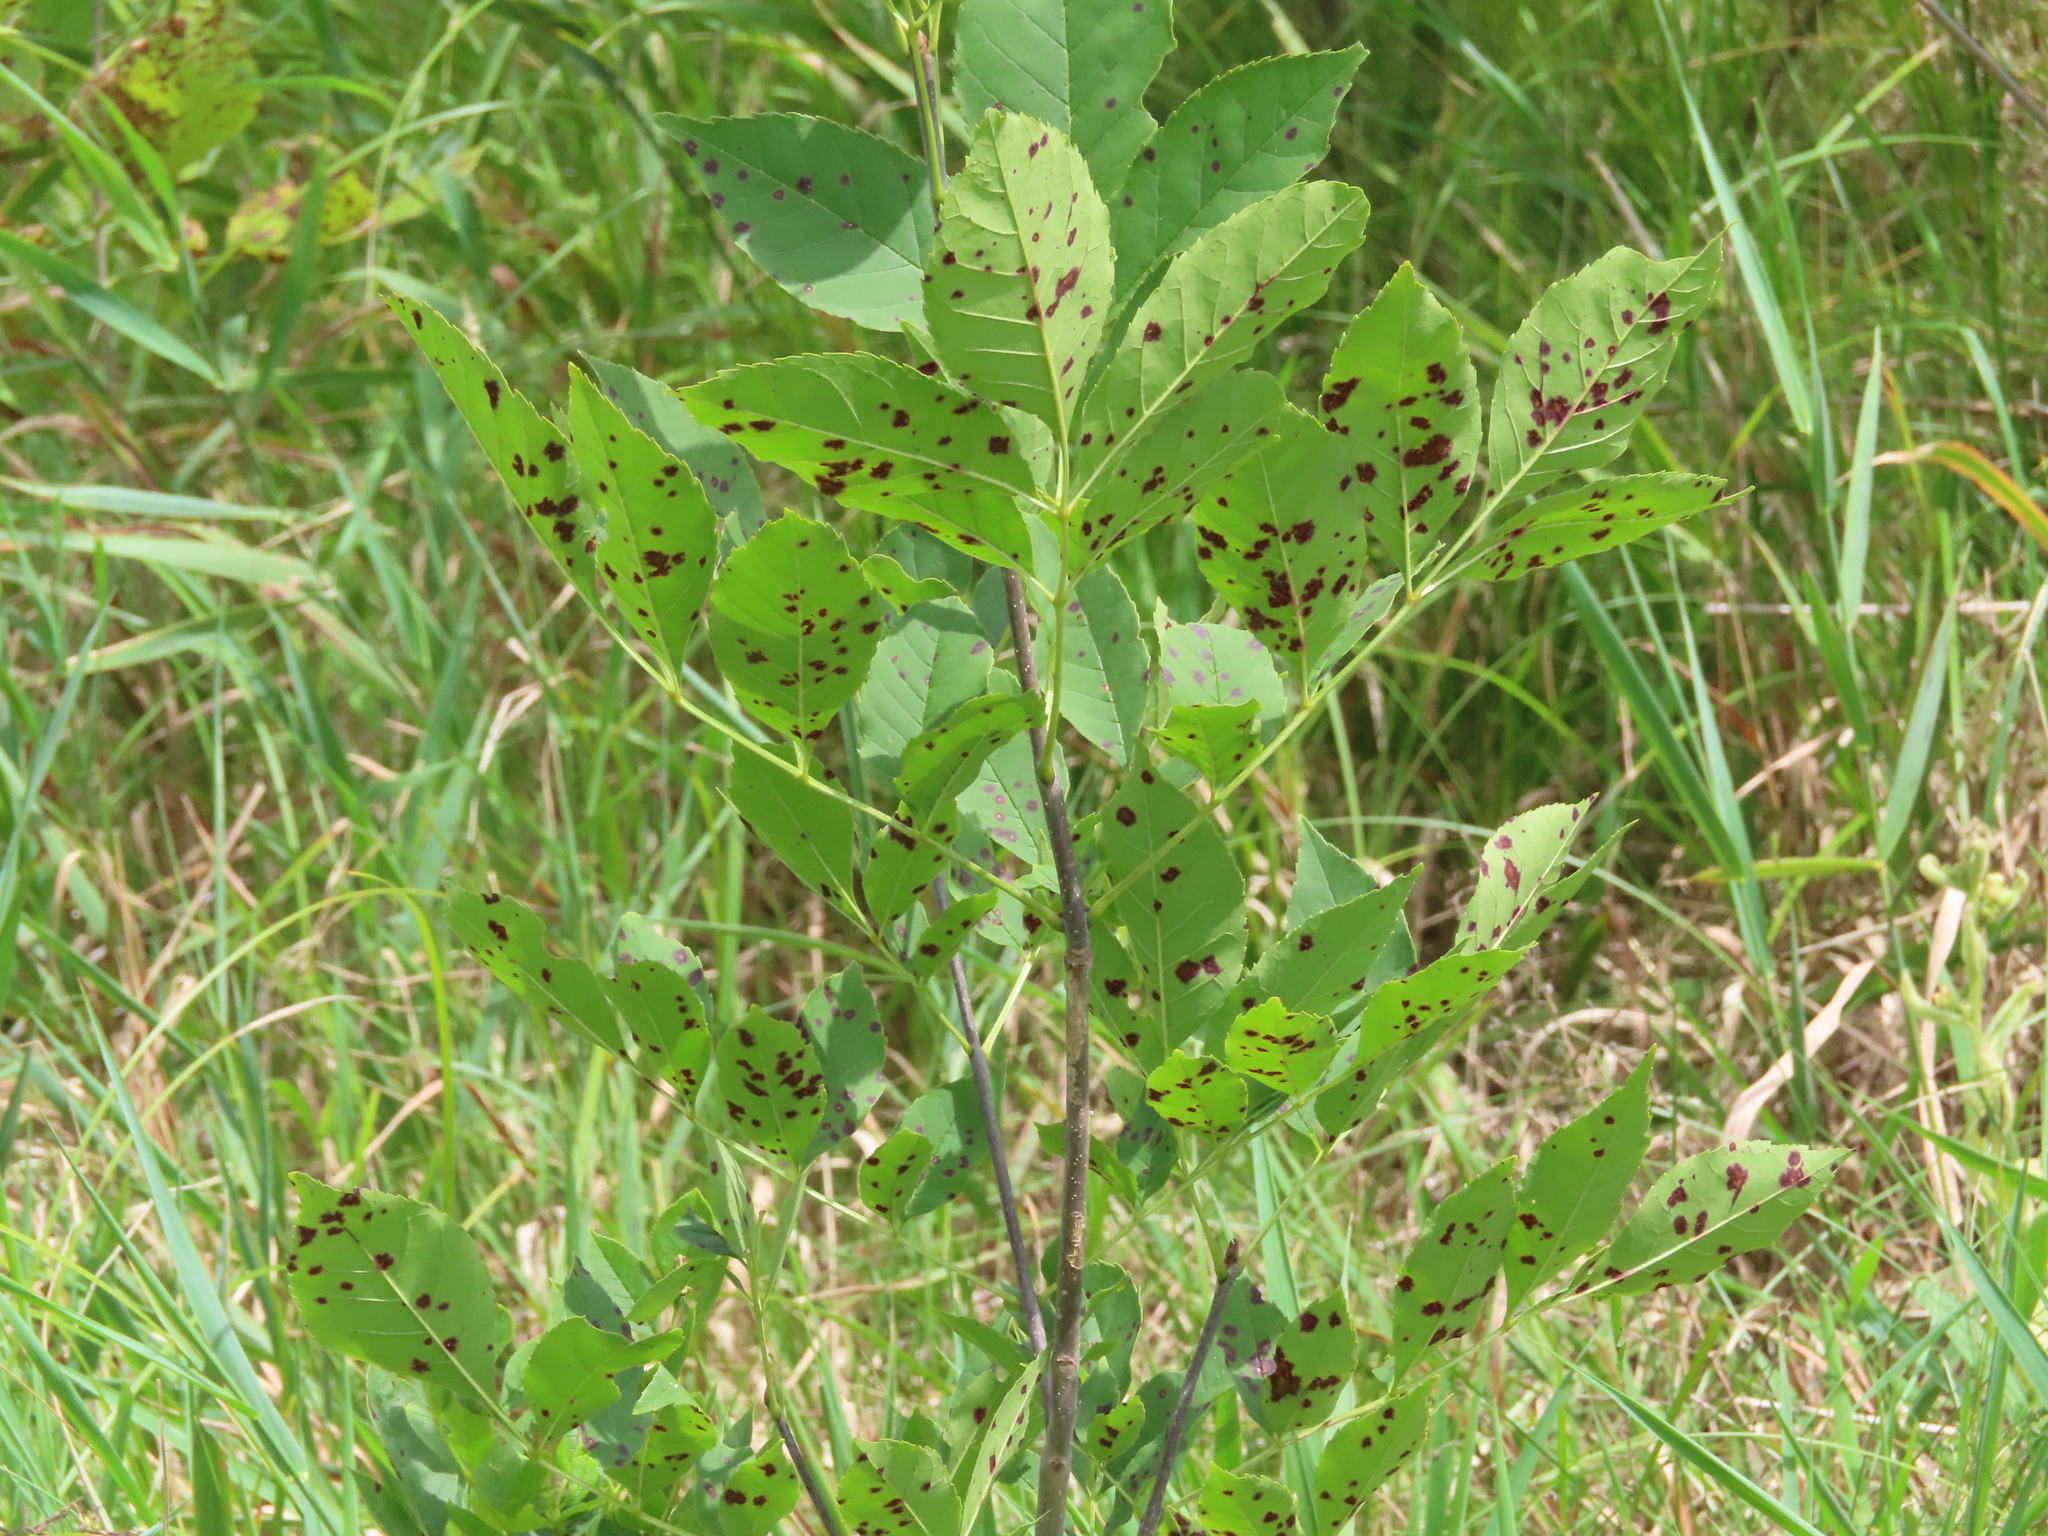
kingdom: Fungi
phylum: Ascomycota
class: Dothideomycetes
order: Mycosphaerellales
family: Mycosphaerellaceae
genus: Mycosphaerella
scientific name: Mycosphaerella fraxinicola
